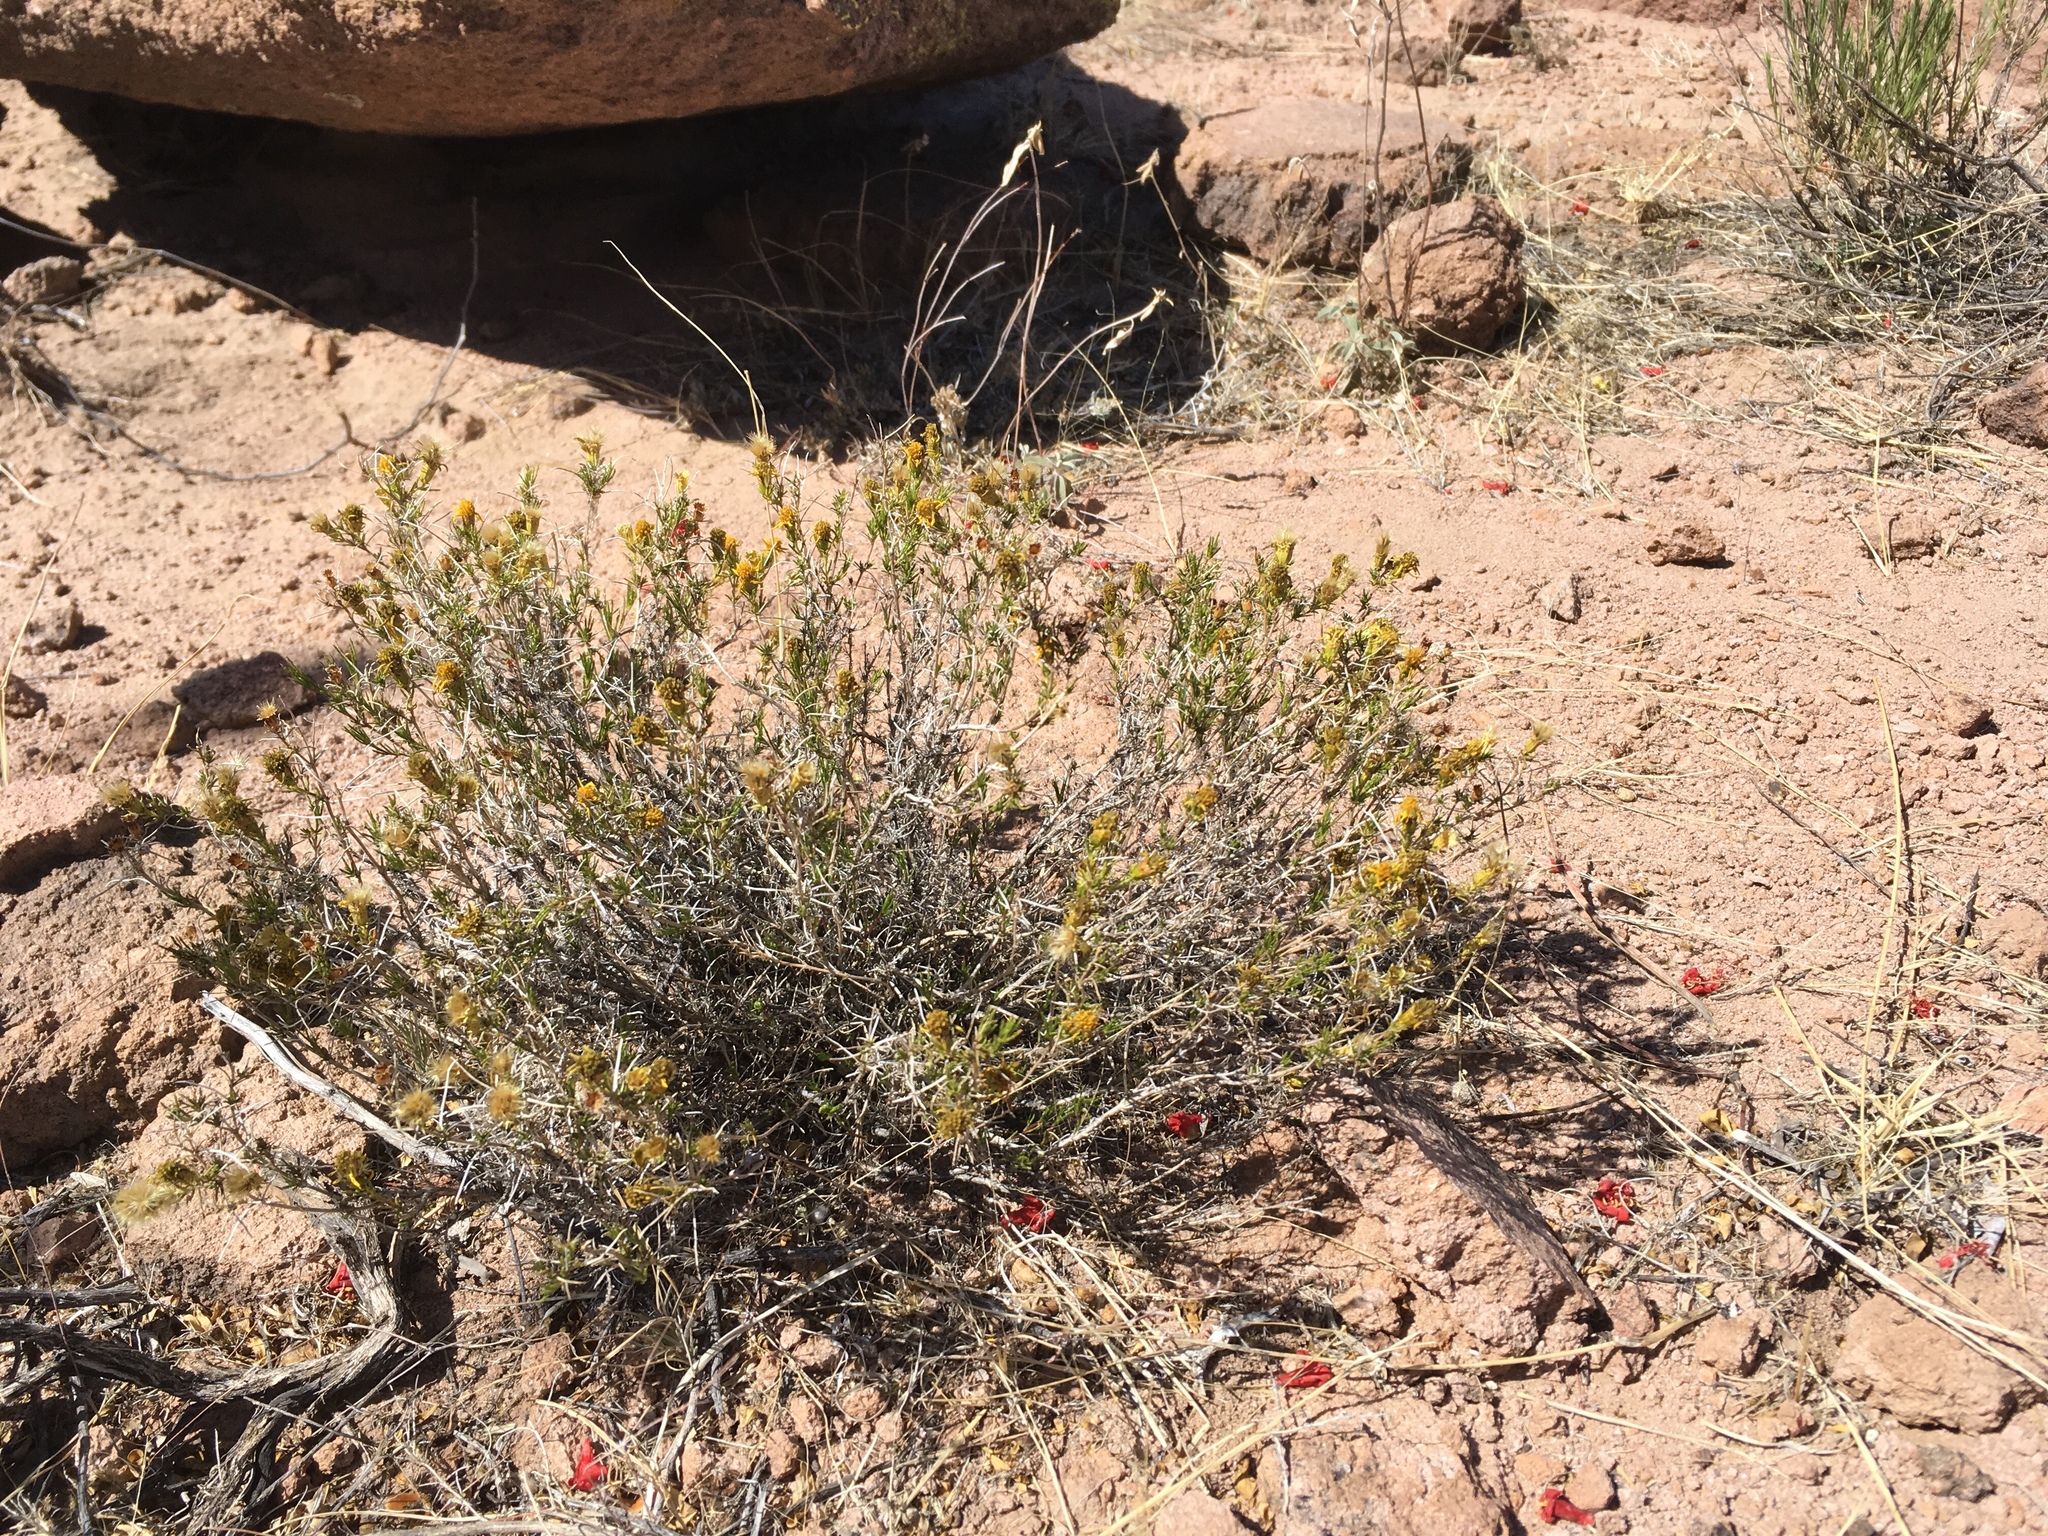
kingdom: Plantae
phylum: Tracheophyta
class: Magnoliopsida
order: Asterales
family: Asteraceae
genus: Thymophylla
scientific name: Thymophylla acerosa
